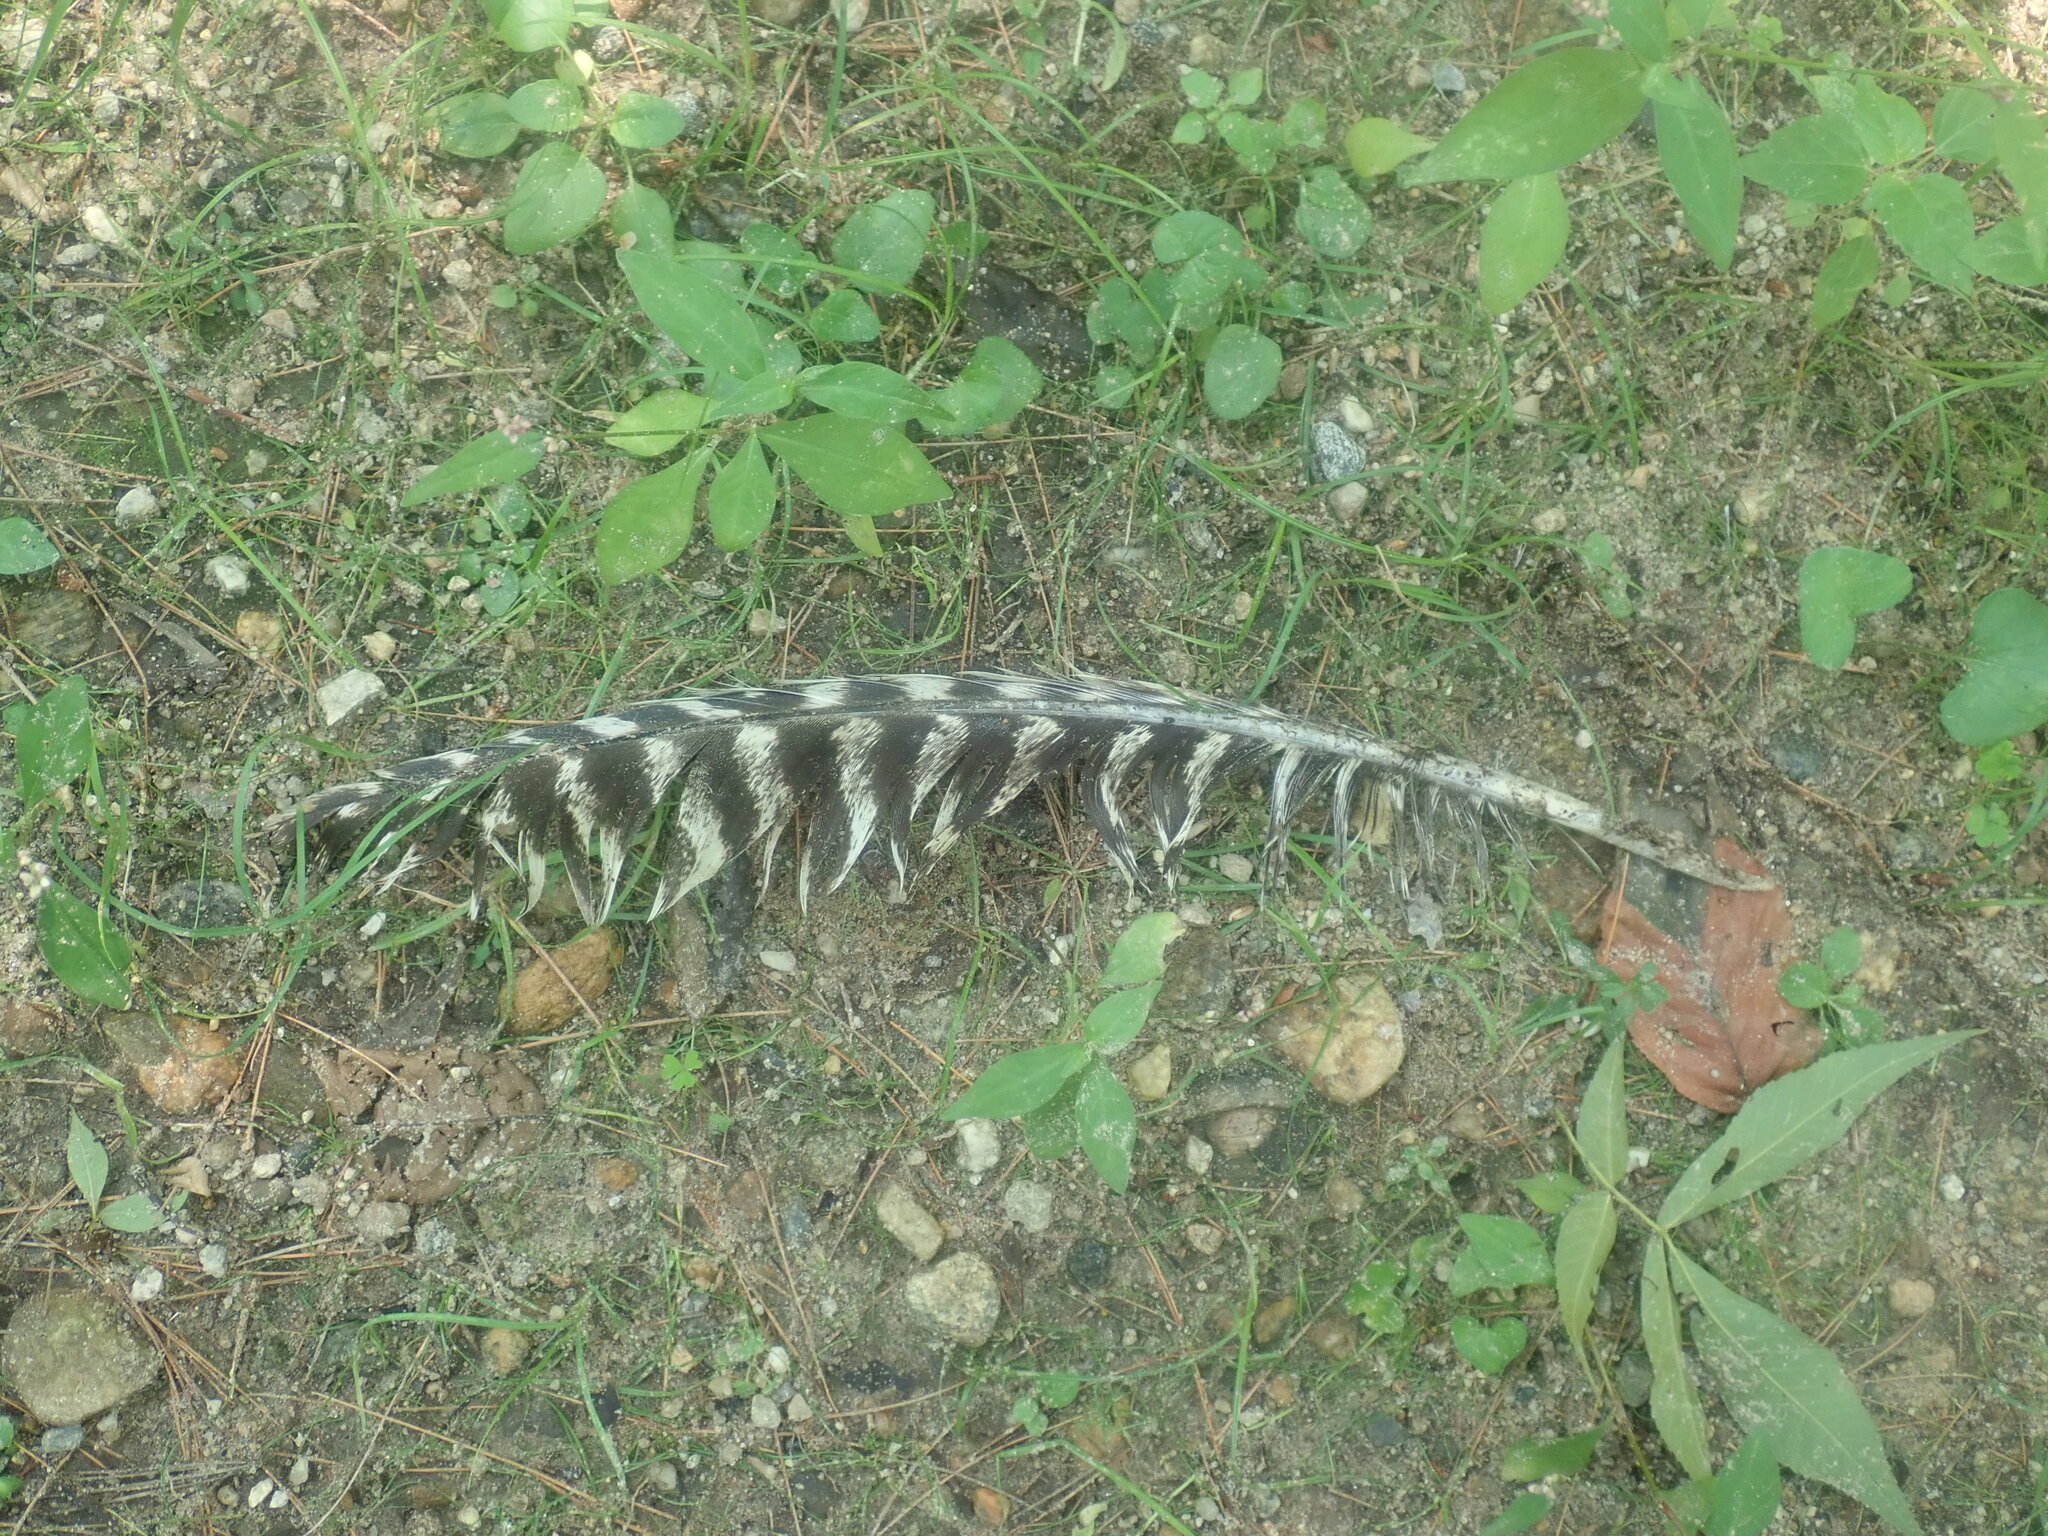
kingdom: Animalia
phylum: Chordata
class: Aves
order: Galliformes
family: Phasianidae
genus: Meleagris
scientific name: Meleagris gallopavo
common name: Wild turkey
